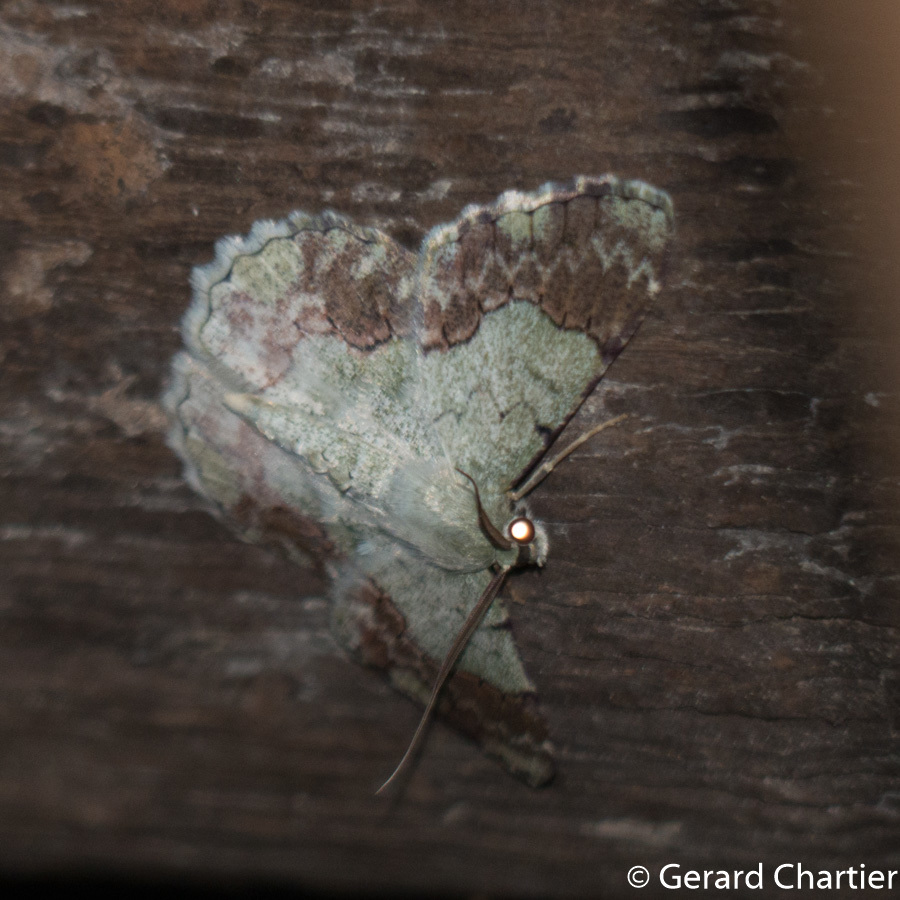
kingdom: Animalia
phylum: Arthropoda
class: Insecta
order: Lepidoptera
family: Geometridae
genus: Pingasa
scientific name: Pingasa ruginaria
